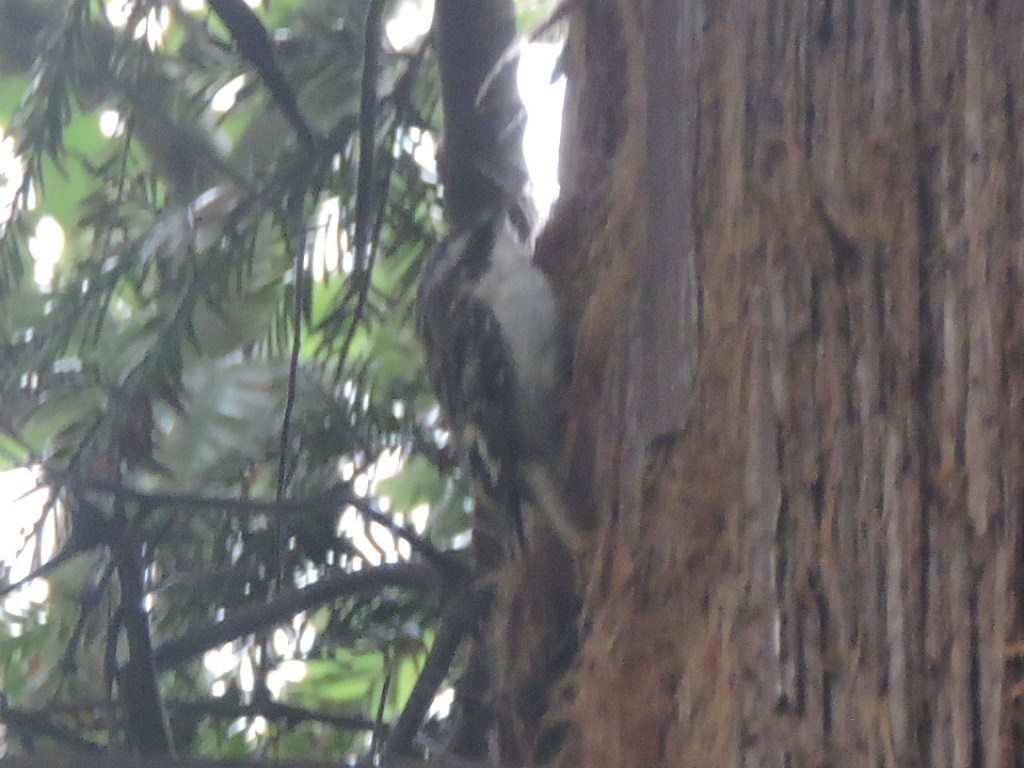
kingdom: Animalia
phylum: Chordata
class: Aves
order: Passeriformes
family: Certhiidae
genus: Certhia
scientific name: Certhia americana
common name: Brown creeper
